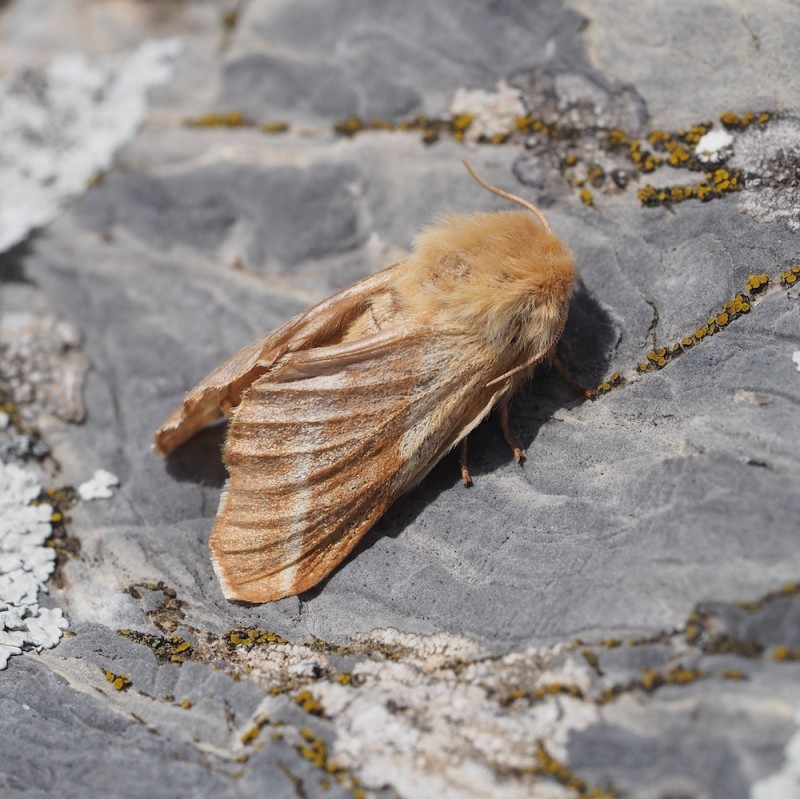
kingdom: Animalia
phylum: Arthropoda
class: Insecta
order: Lepidoptera
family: Lasiocampidae
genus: Malacosoma
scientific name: Malacosoma castrense
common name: Ground lackey
